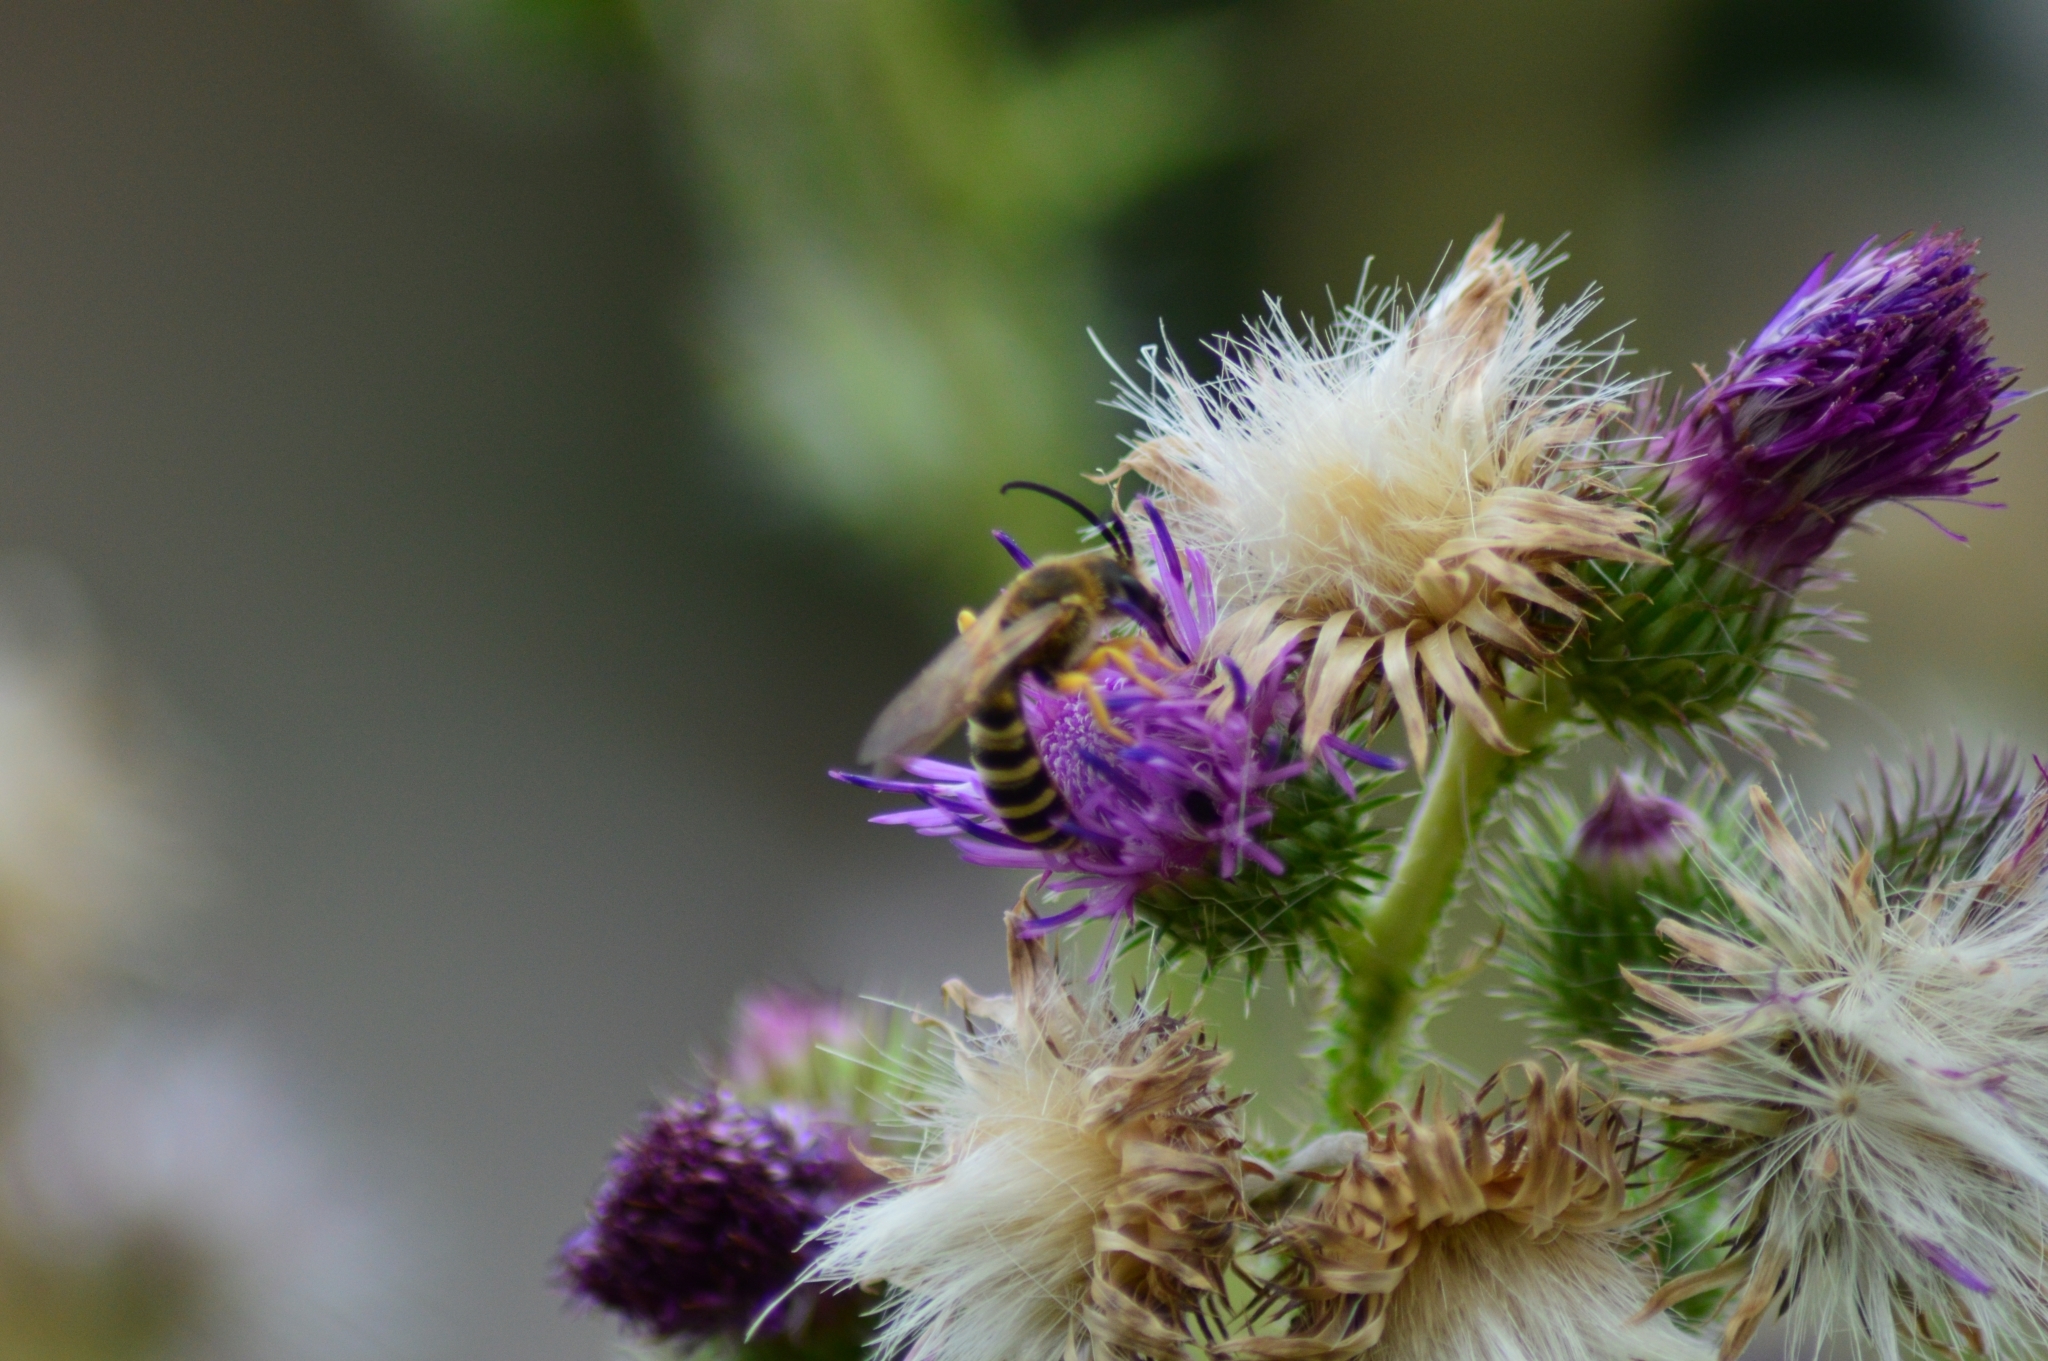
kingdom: Animalia
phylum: Arthropoda
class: Insecta
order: Hymenoptera
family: Halictidae
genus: Halictus
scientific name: Halictus scabiosae
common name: Great banded furrow bee
